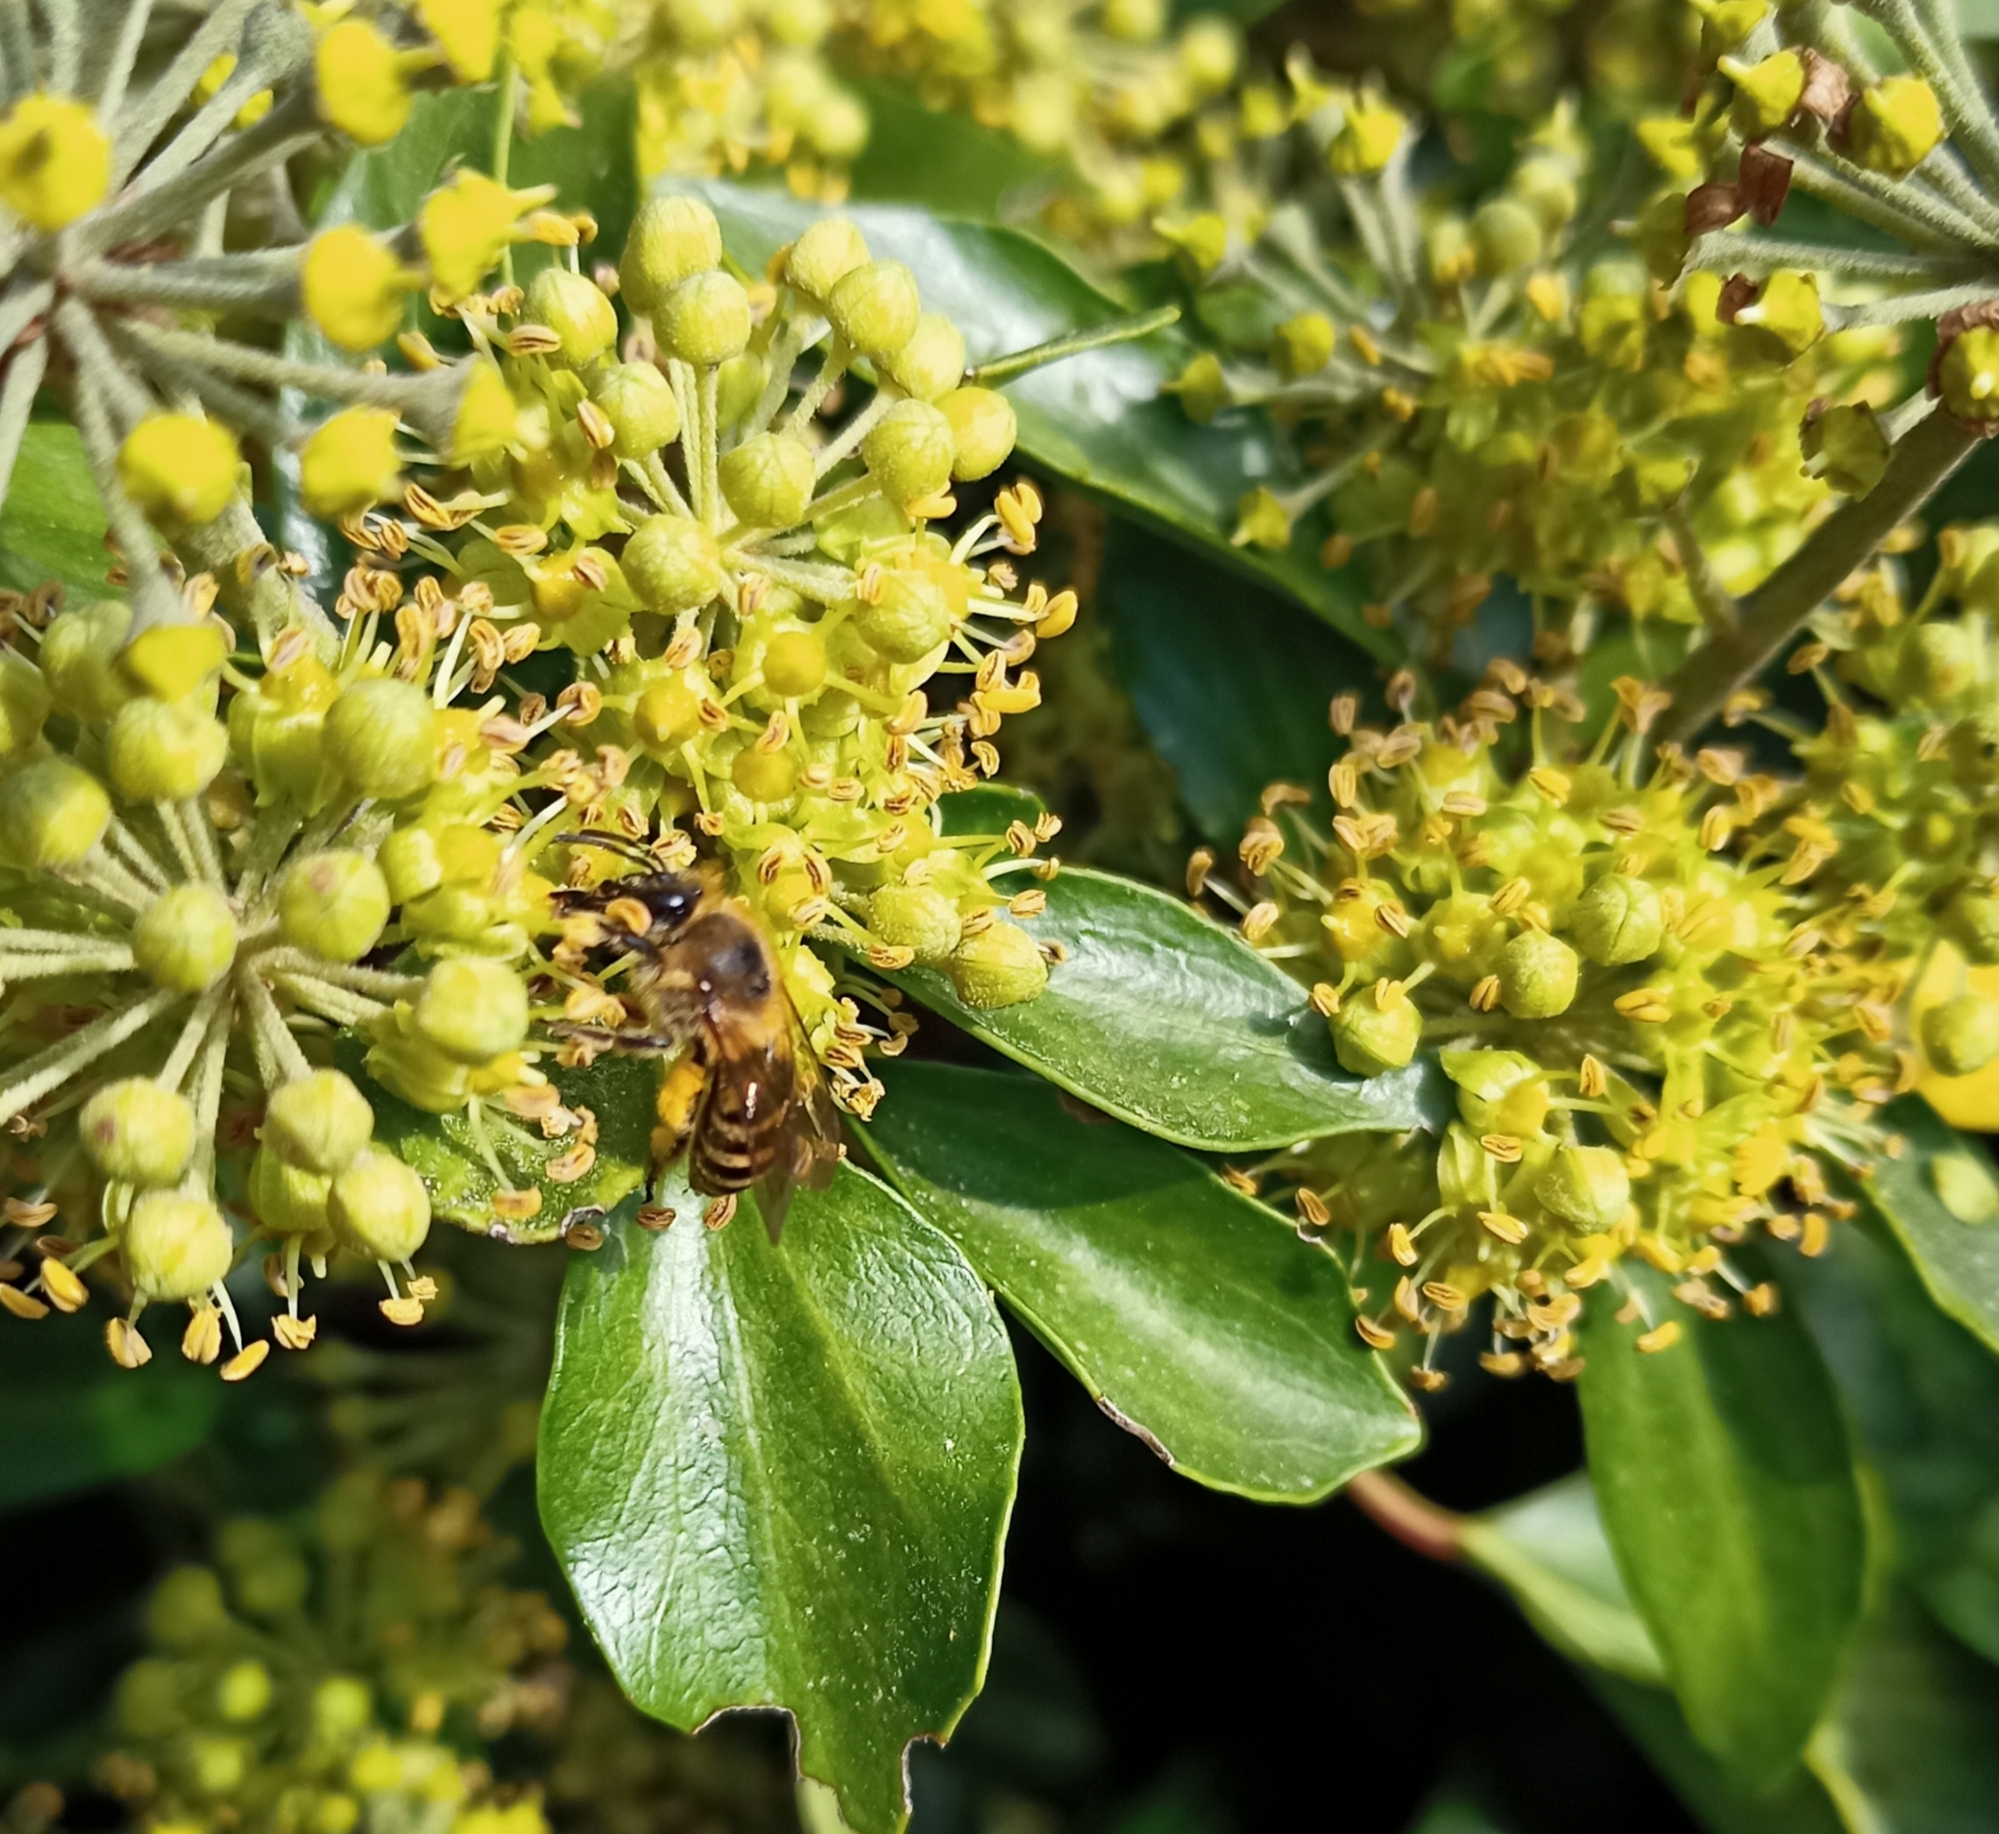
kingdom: Animalia
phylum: Arthropoda
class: Insecta
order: Hymenoptera
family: Colletidae
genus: Colletes
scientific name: Colletes hederae
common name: Ivy bee
